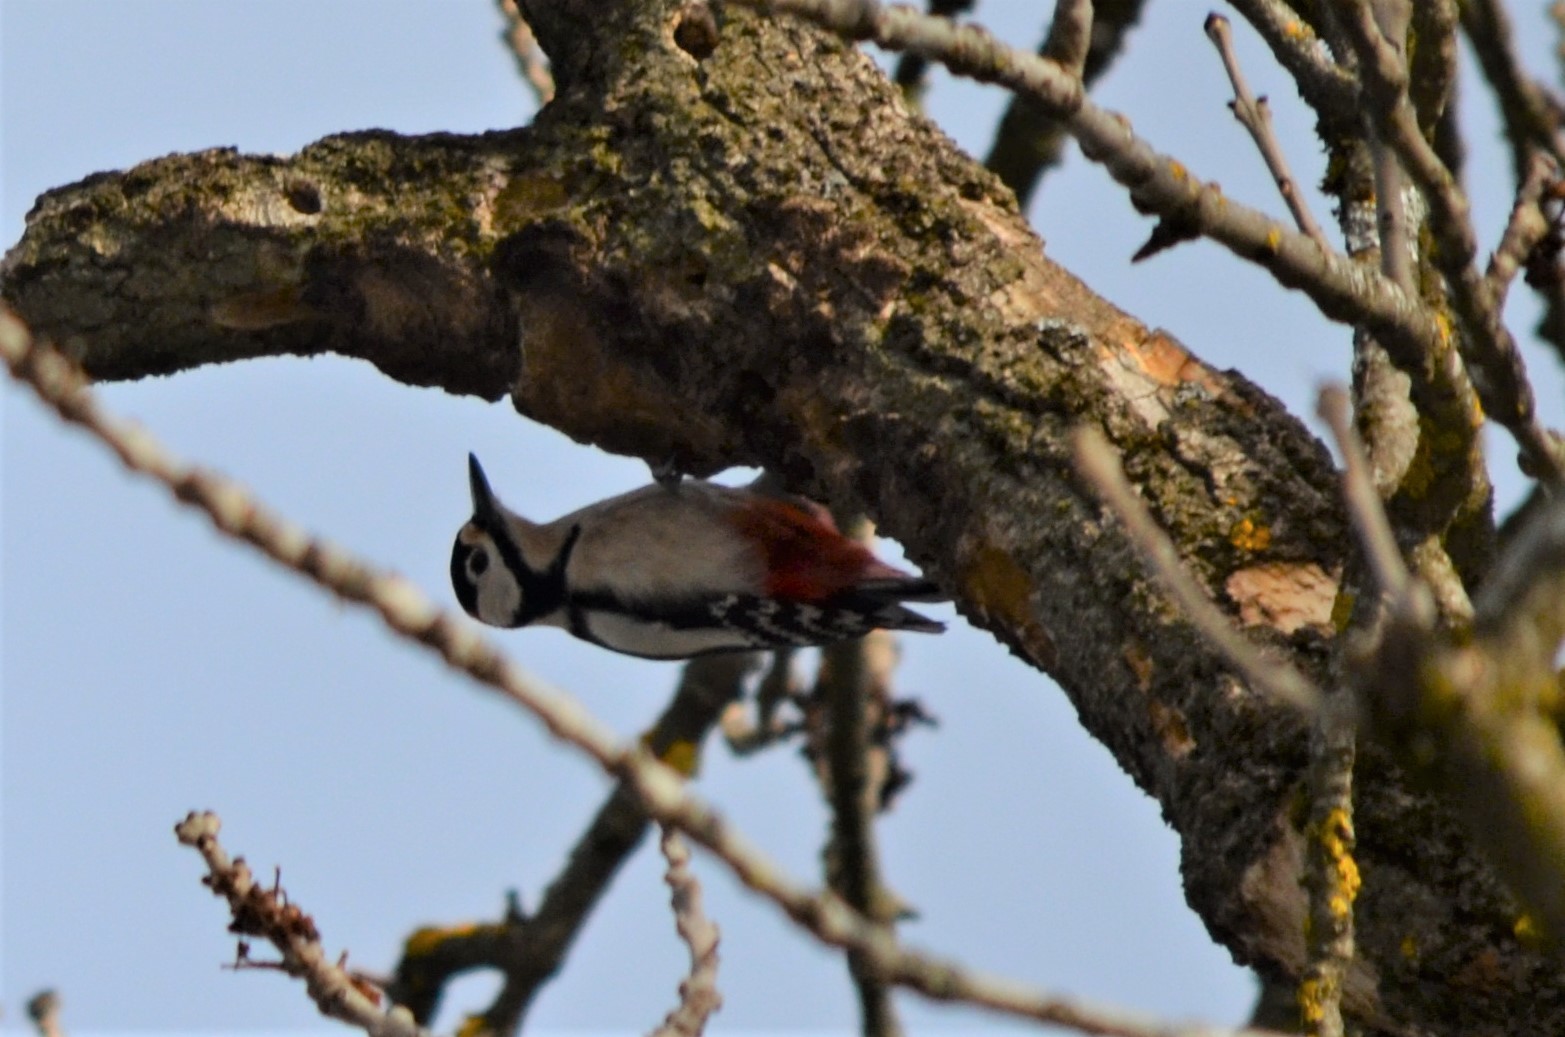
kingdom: Animalia
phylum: Chordata
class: Aves
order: Piciformes
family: Picidae
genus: Dendrocopos
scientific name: Dendrocopos major
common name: Great spotted woodpecker
